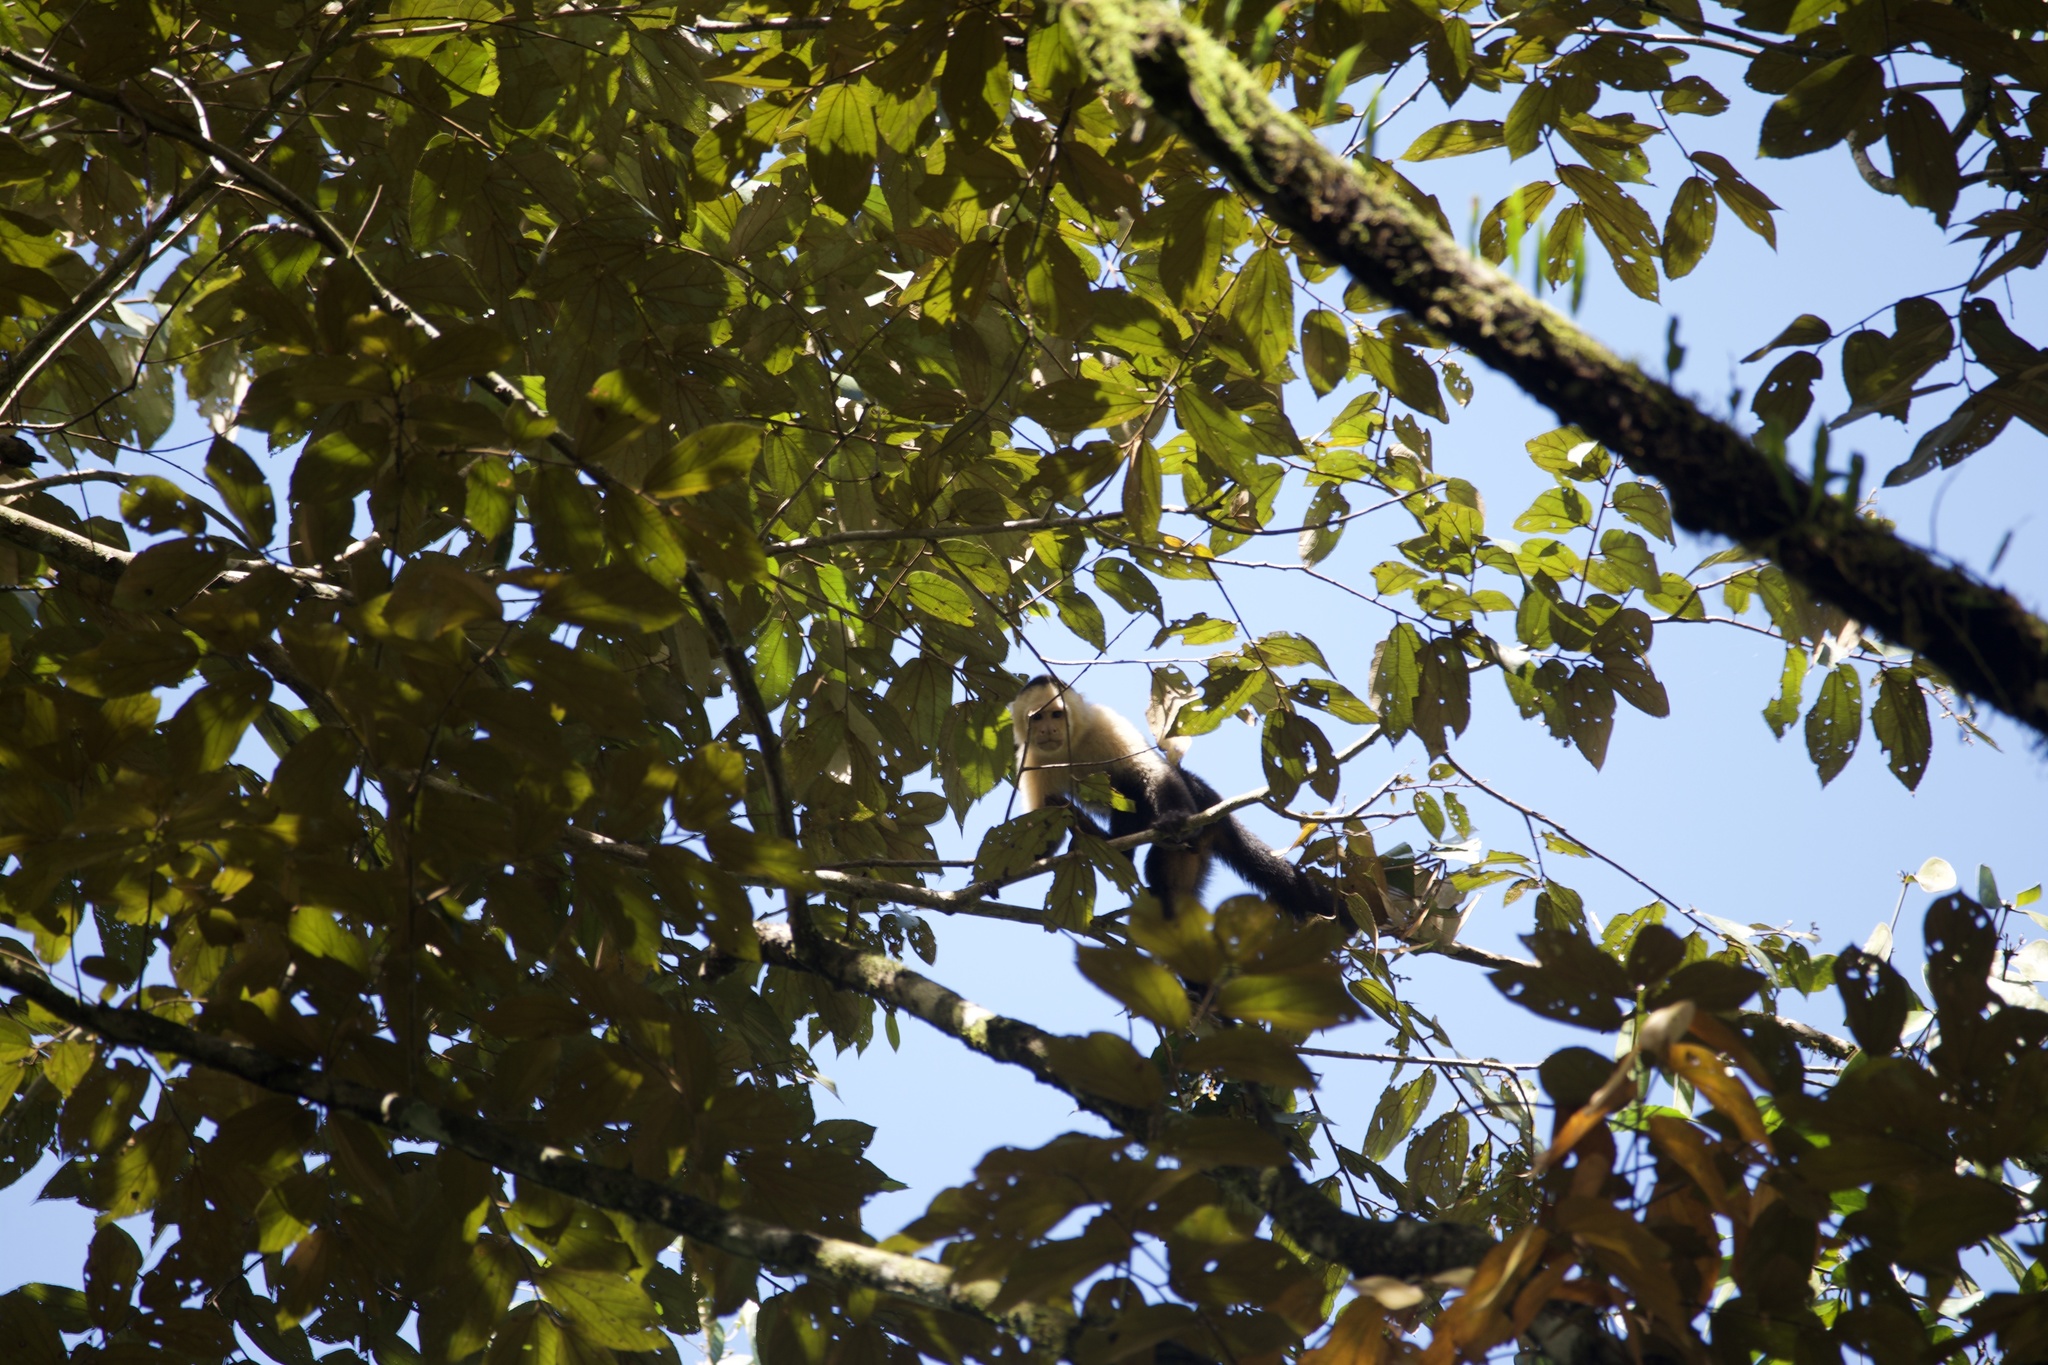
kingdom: Animalia
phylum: Chordata
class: Mammalia
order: Primates
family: Cebidae
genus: Cebus
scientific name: Cebus imitator
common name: Panamanian white-faced capuchin
